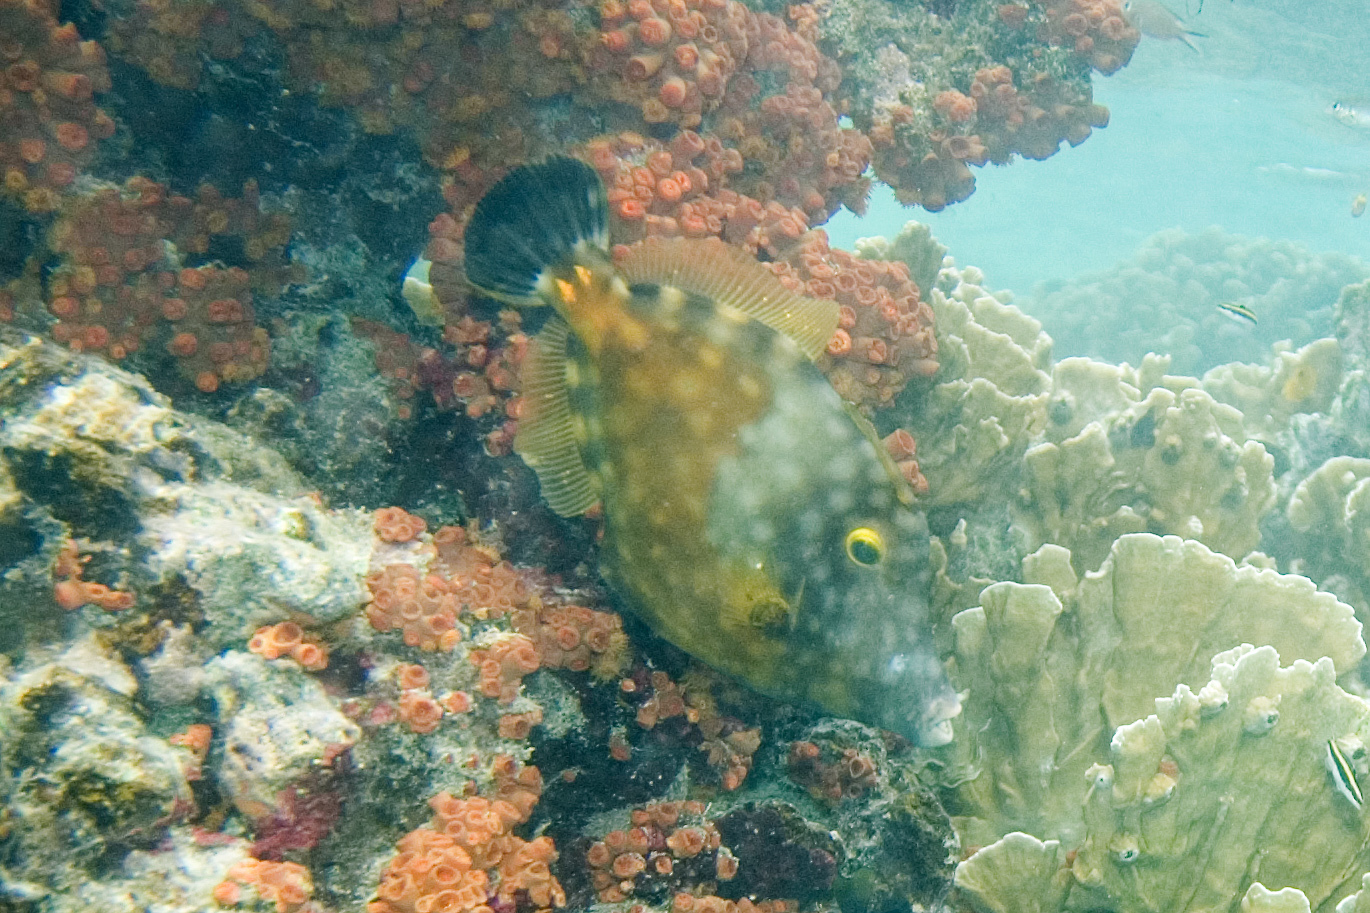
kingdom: Animalia
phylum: Chordata
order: Tetraodontiformes
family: Monacanthidae
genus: Cantherhines
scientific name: Cantherhines macrocerus
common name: Whitespotted filefish
